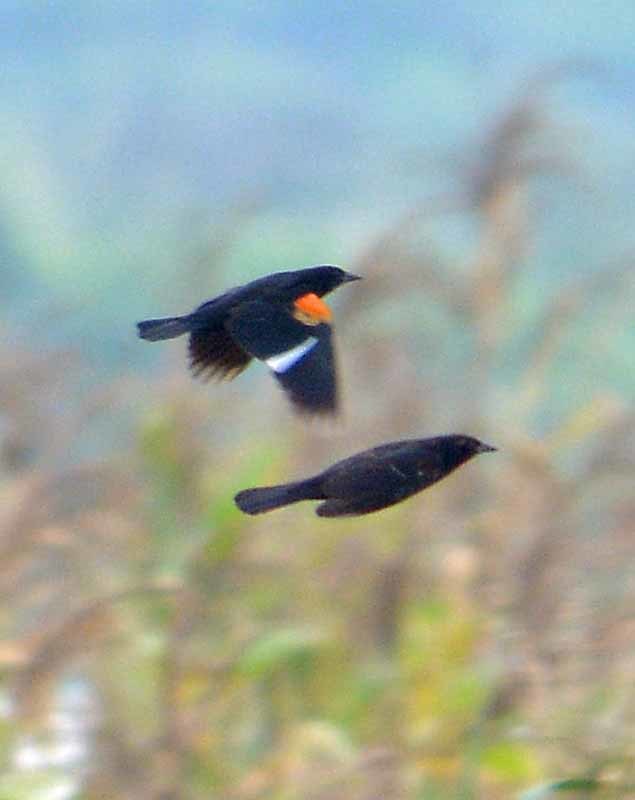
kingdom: Animalia
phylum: Chordata
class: Aves
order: Passeriformes
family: Icteridae
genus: Agelaius
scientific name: Agelaius phoeniceus
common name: Red-winged blackbird
